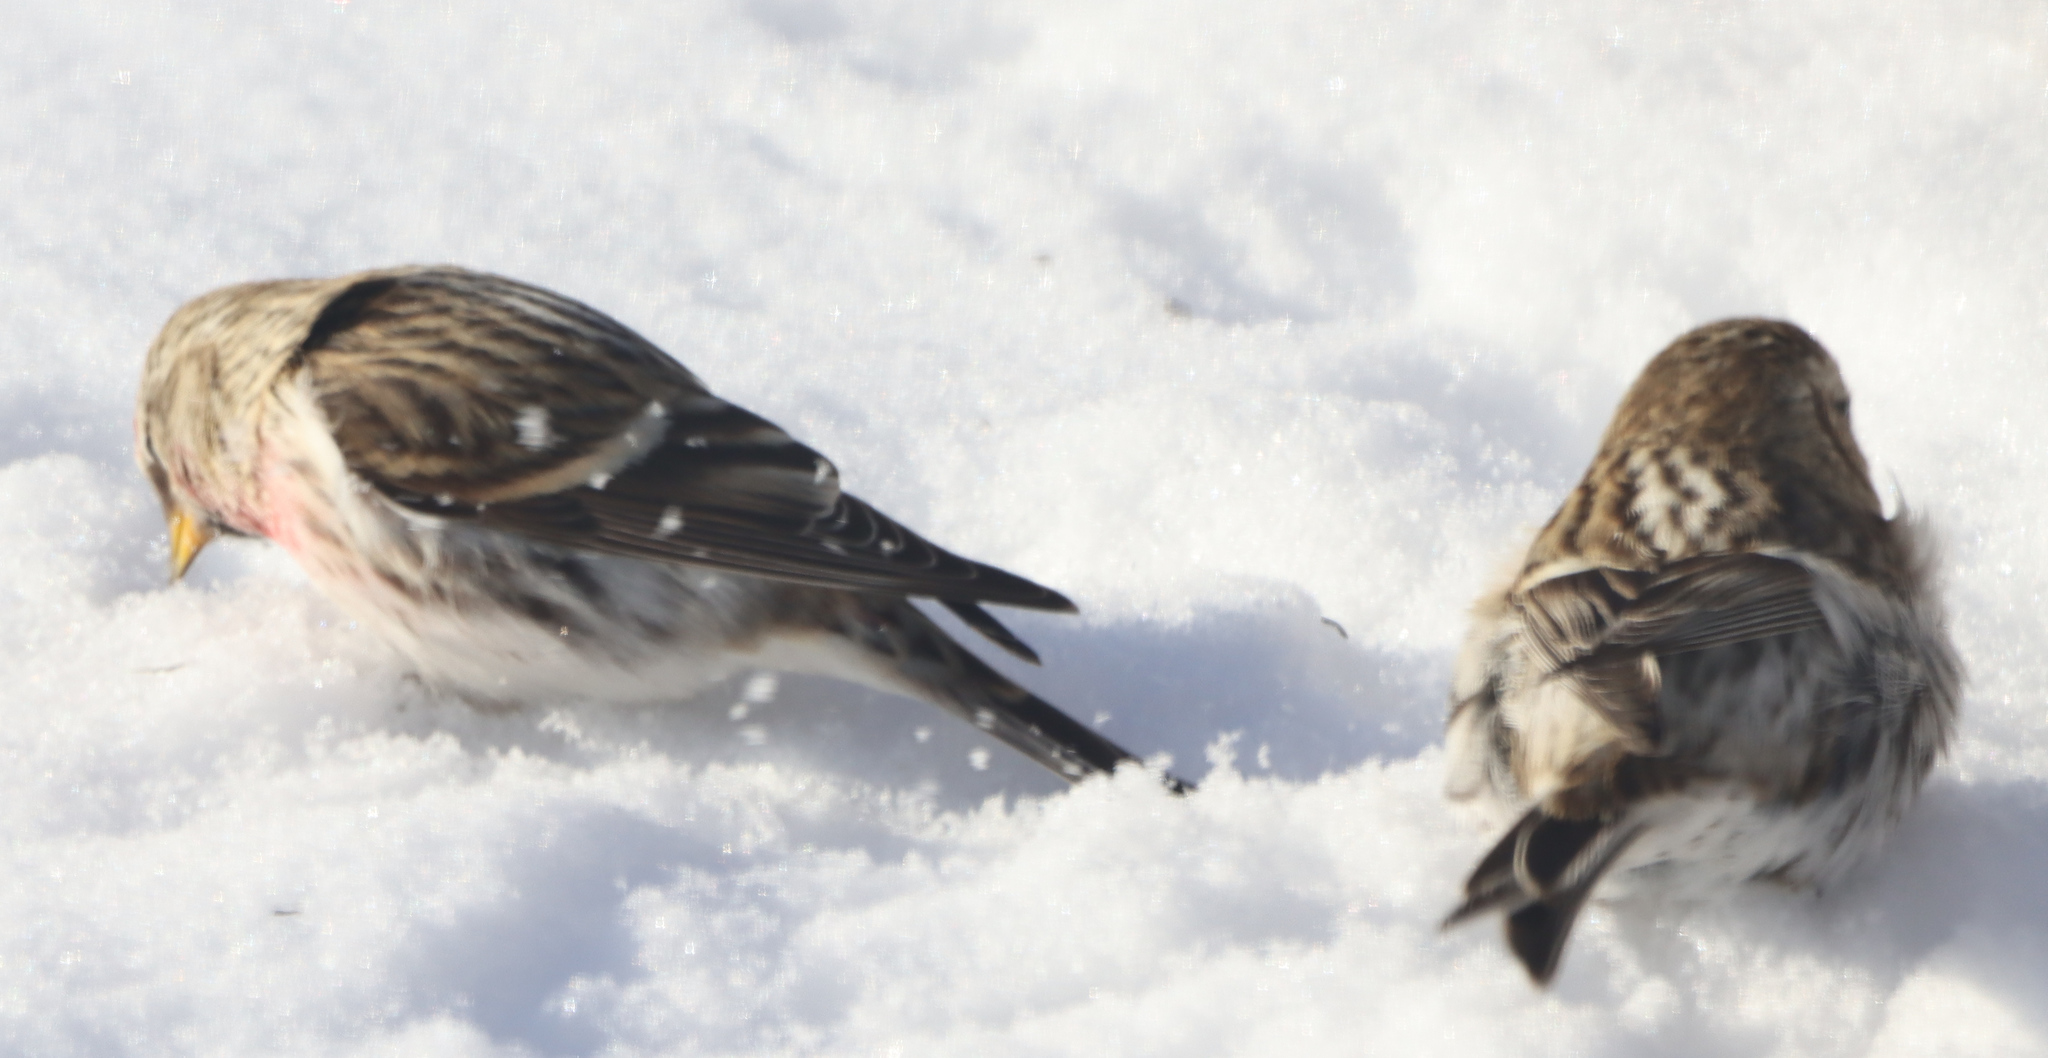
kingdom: Animalia
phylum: Chordata
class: Aves
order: Passeriformes
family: Fringillidae
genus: Acanthis
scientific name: Acanthis flammea
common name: Common redpoll
